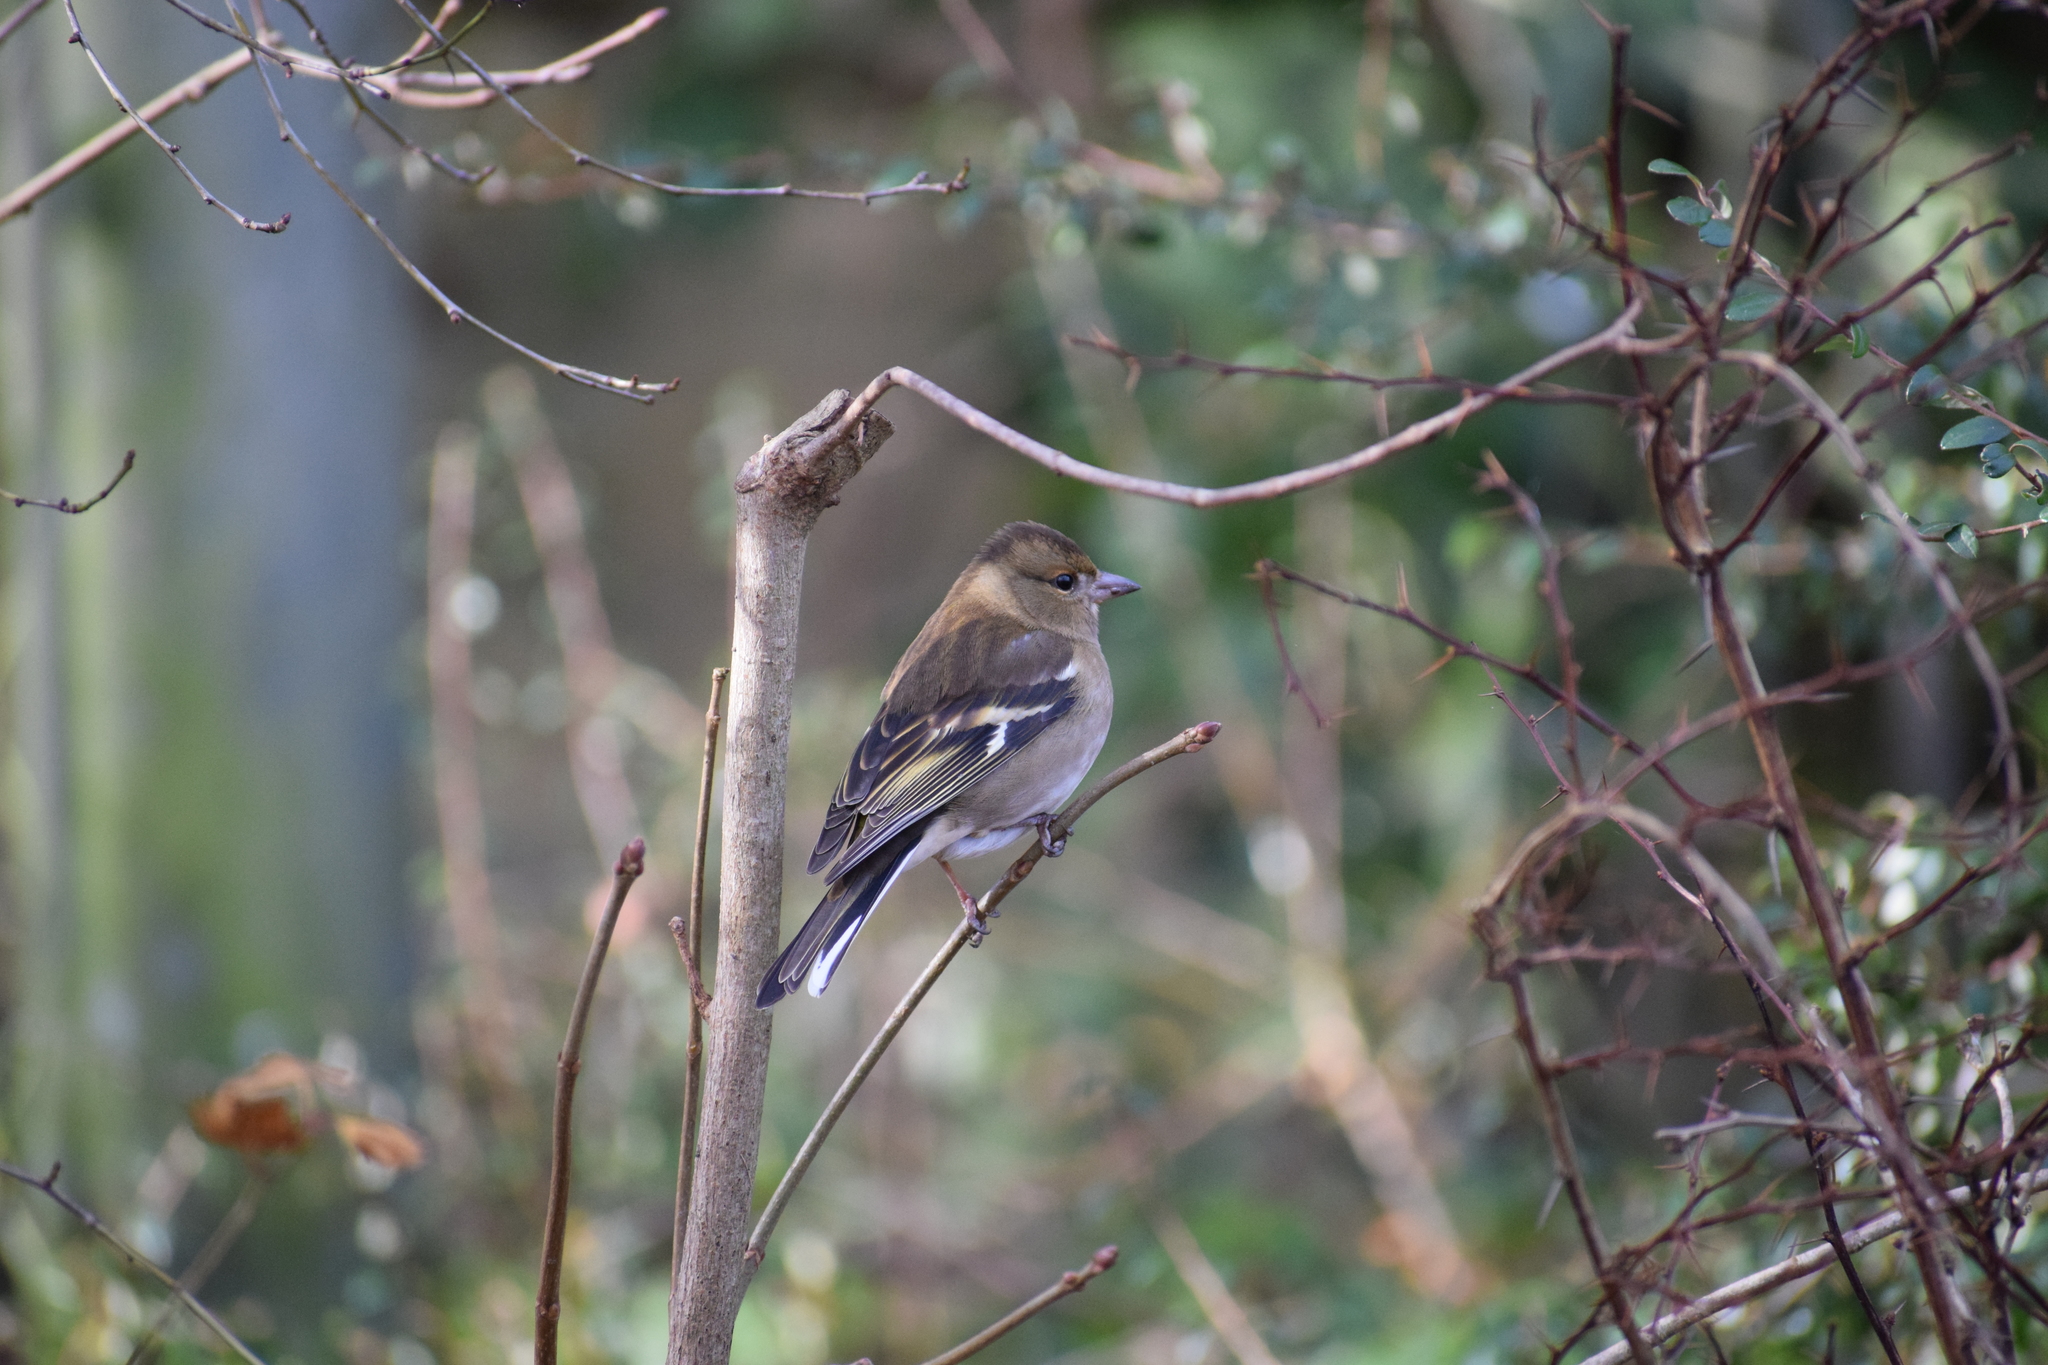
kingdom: Animalia
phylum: Chordata
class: Aves
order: Passeriformes
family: Fringillidae
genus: Fringilla
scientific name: Fringilla coelebs
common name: Common chaffinch
